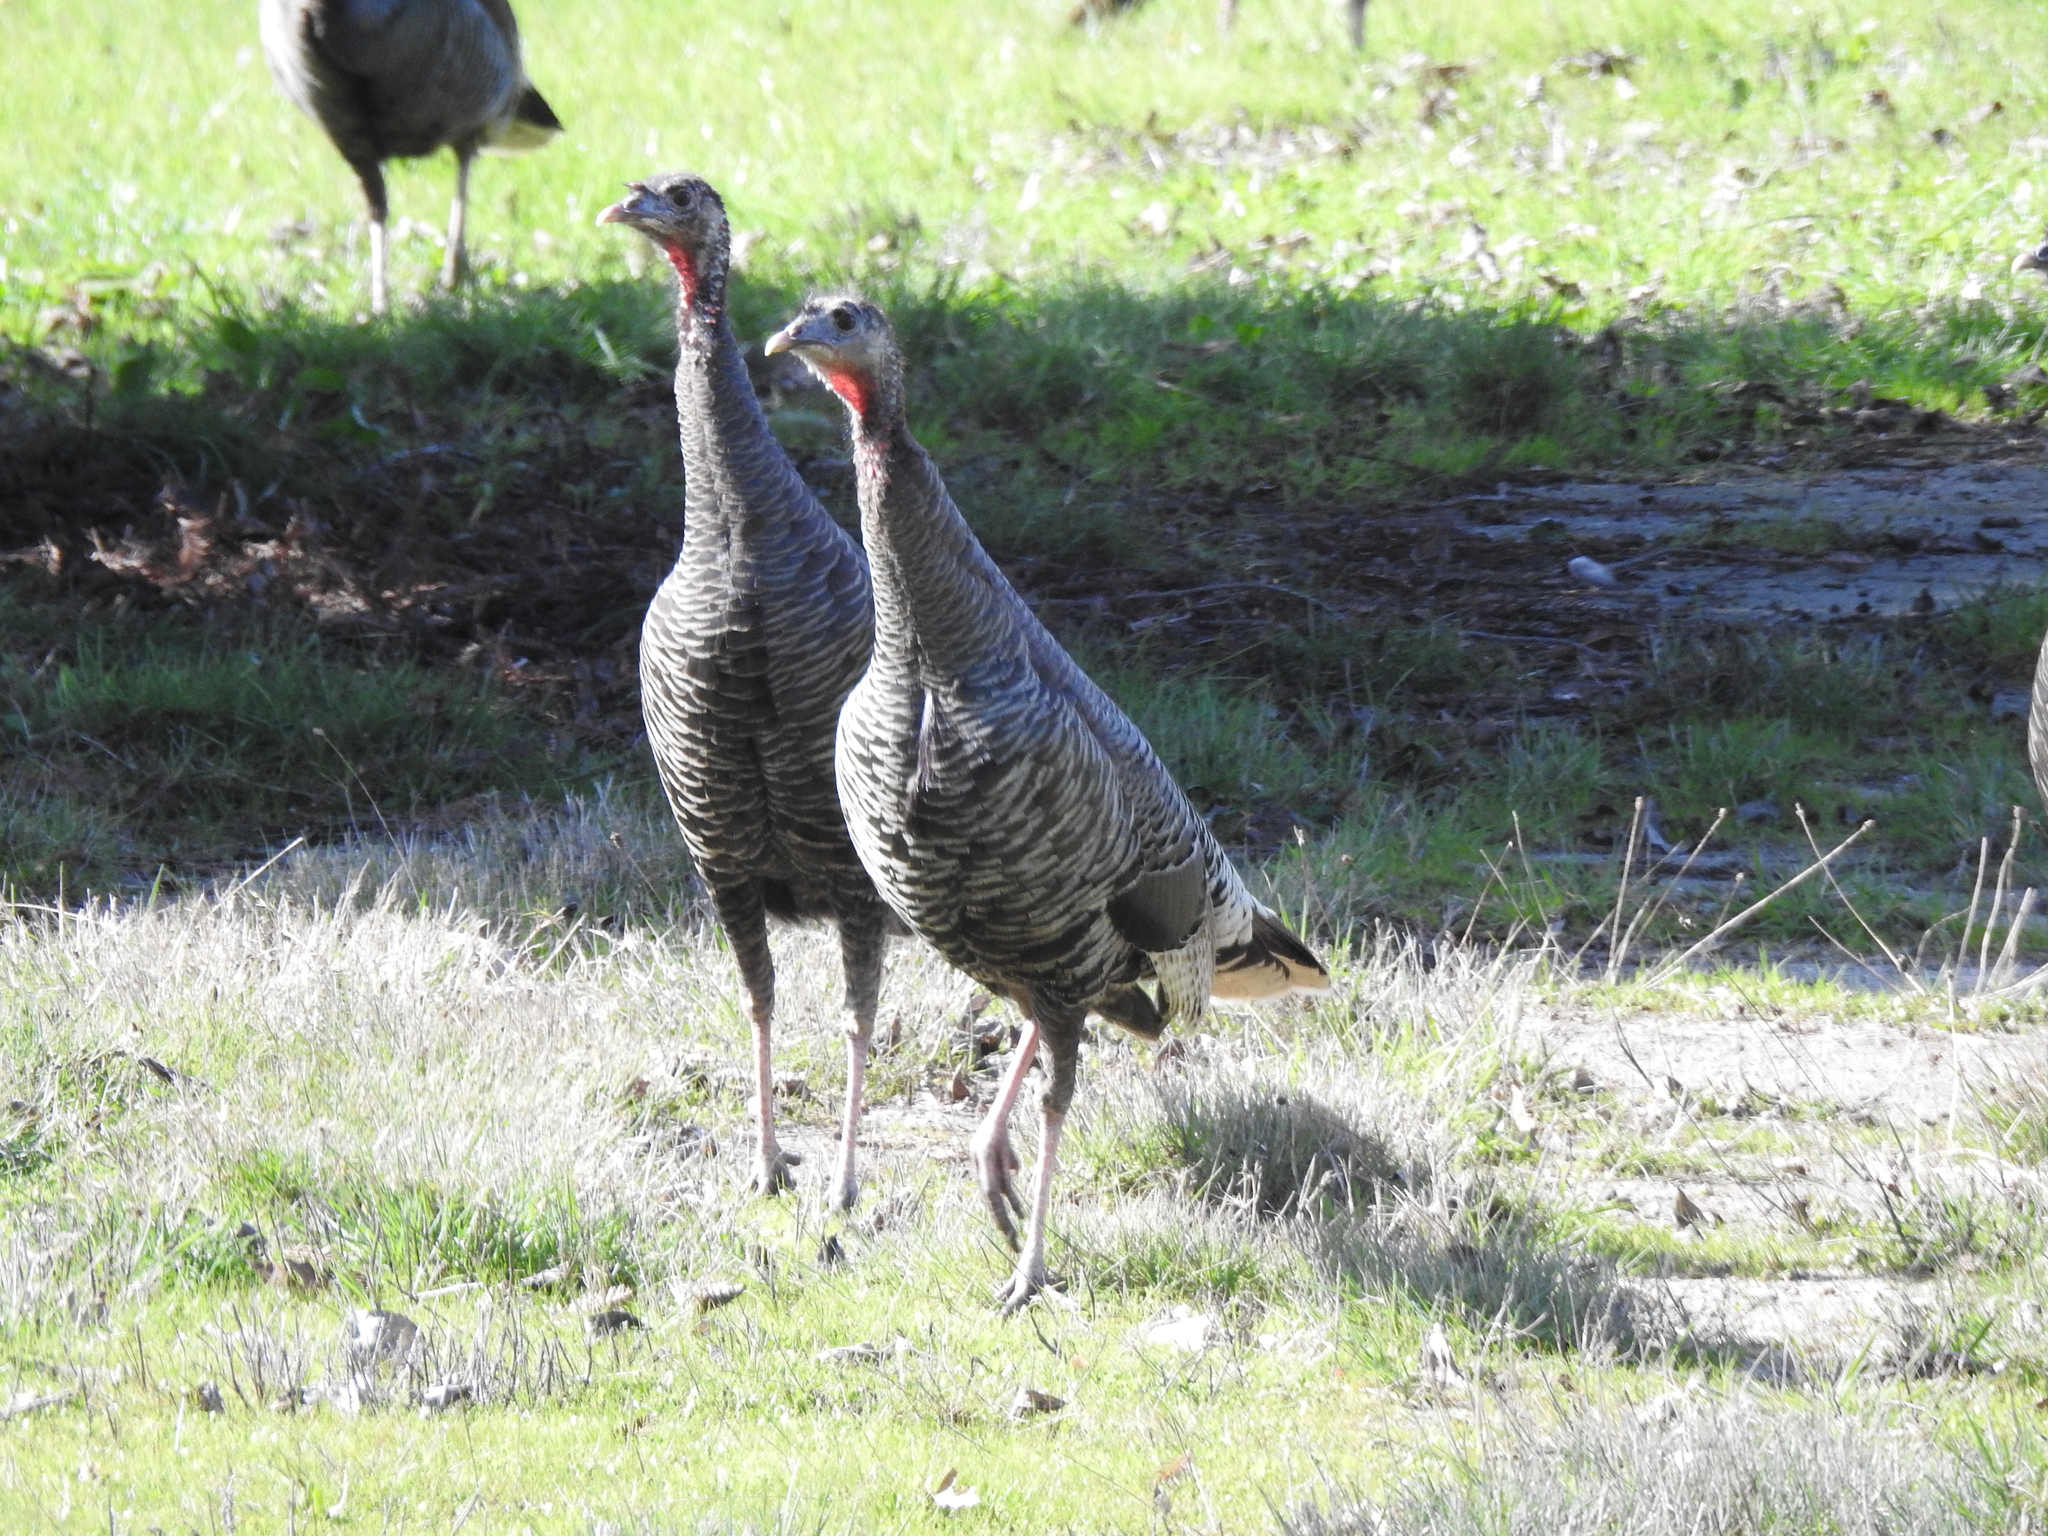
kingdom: Animalia
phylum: Chordata
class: Aves
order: Galliformes
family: Phasianidae
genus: Meleagris
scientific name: Meleagris gallopavo
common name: Wild turkey
